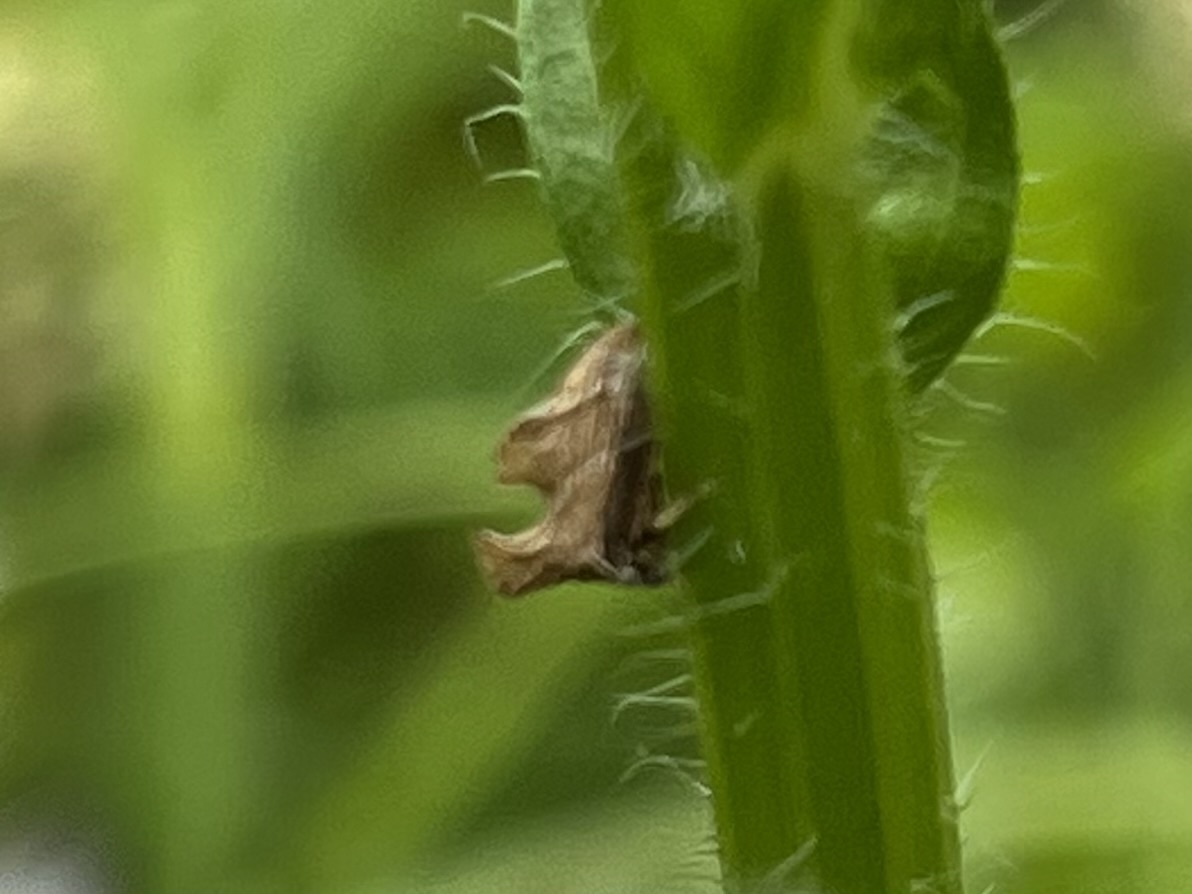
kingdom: Animalia
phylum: Arthropoda
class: Insecta
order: Hemiptera
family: Membracidae
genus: Entylia
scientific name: Entylia carinata
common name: Keeled treehopper
